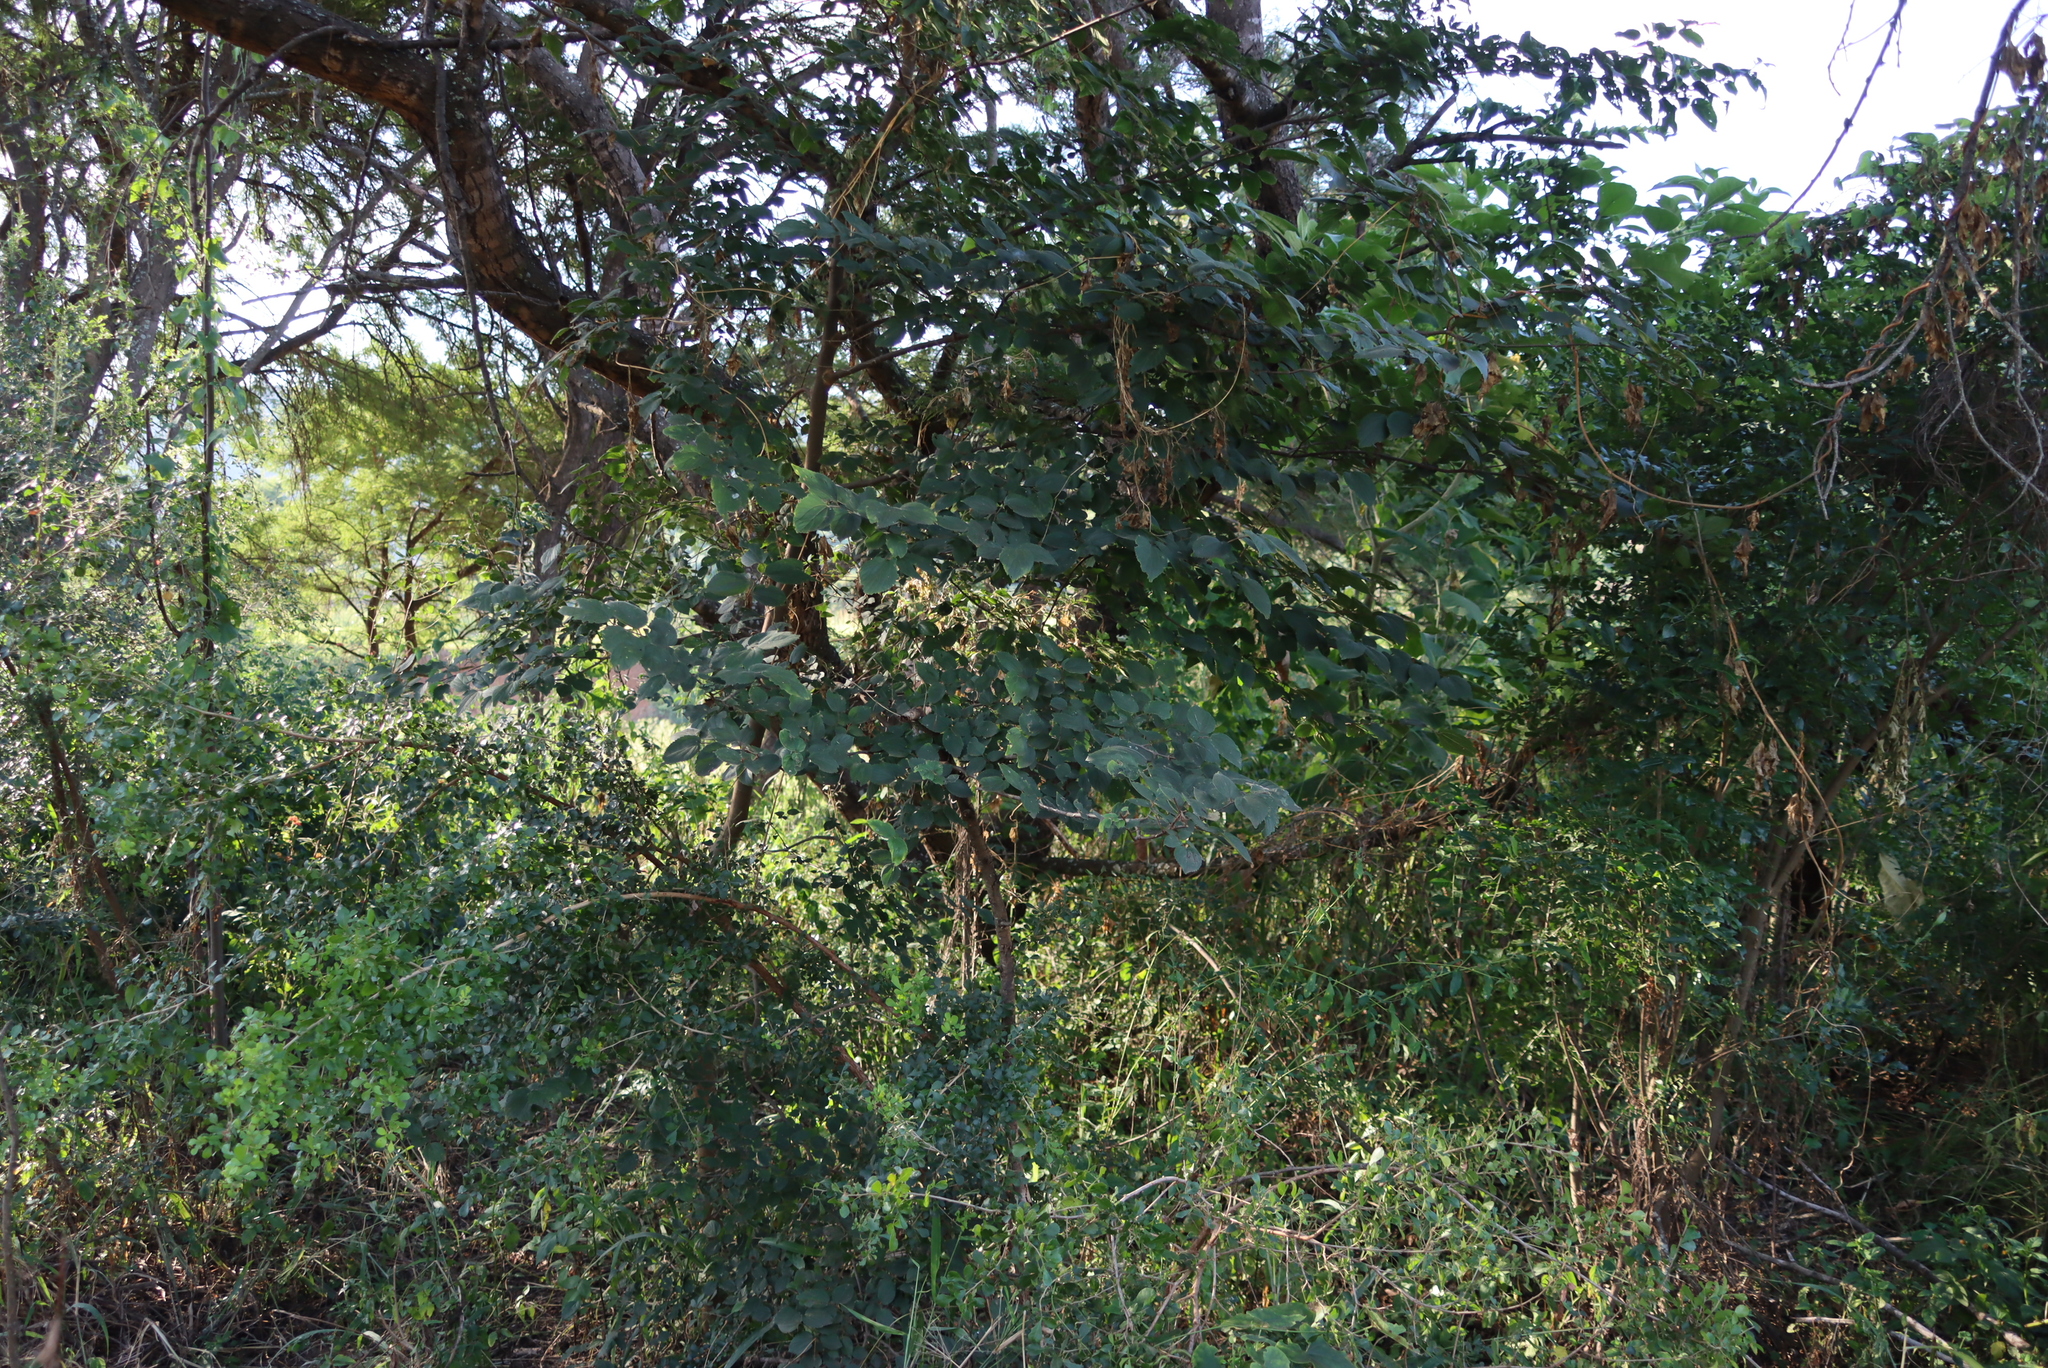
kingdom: Plantae
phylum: Tracheophyta
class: Magnoliopsida
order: Rosales
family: Cannabaceae
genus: Celtis
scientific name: Celtis africana
